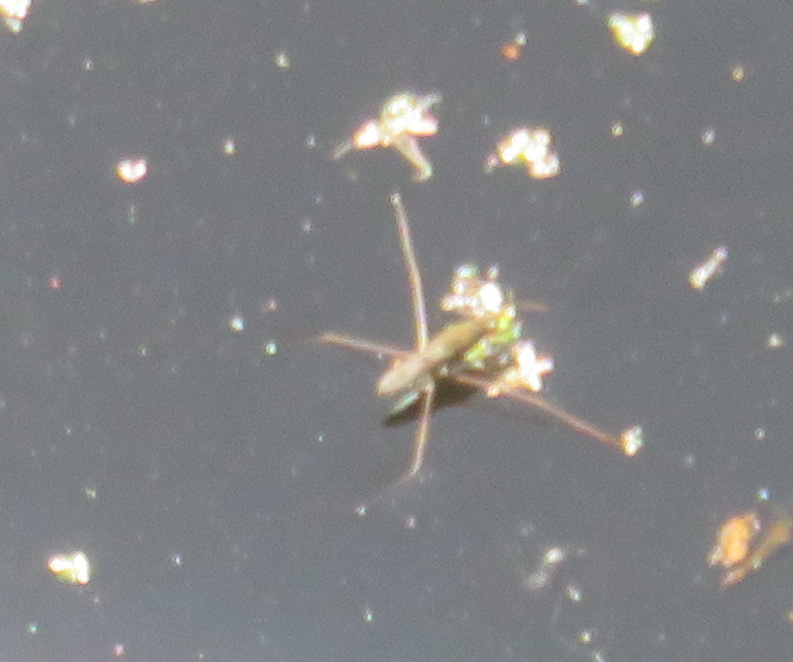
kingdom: Animalia
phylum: Arthropoda
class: Insecta
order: Hemiptera
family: Gerridae
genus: Gerris
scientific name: Gerris swakopensis
